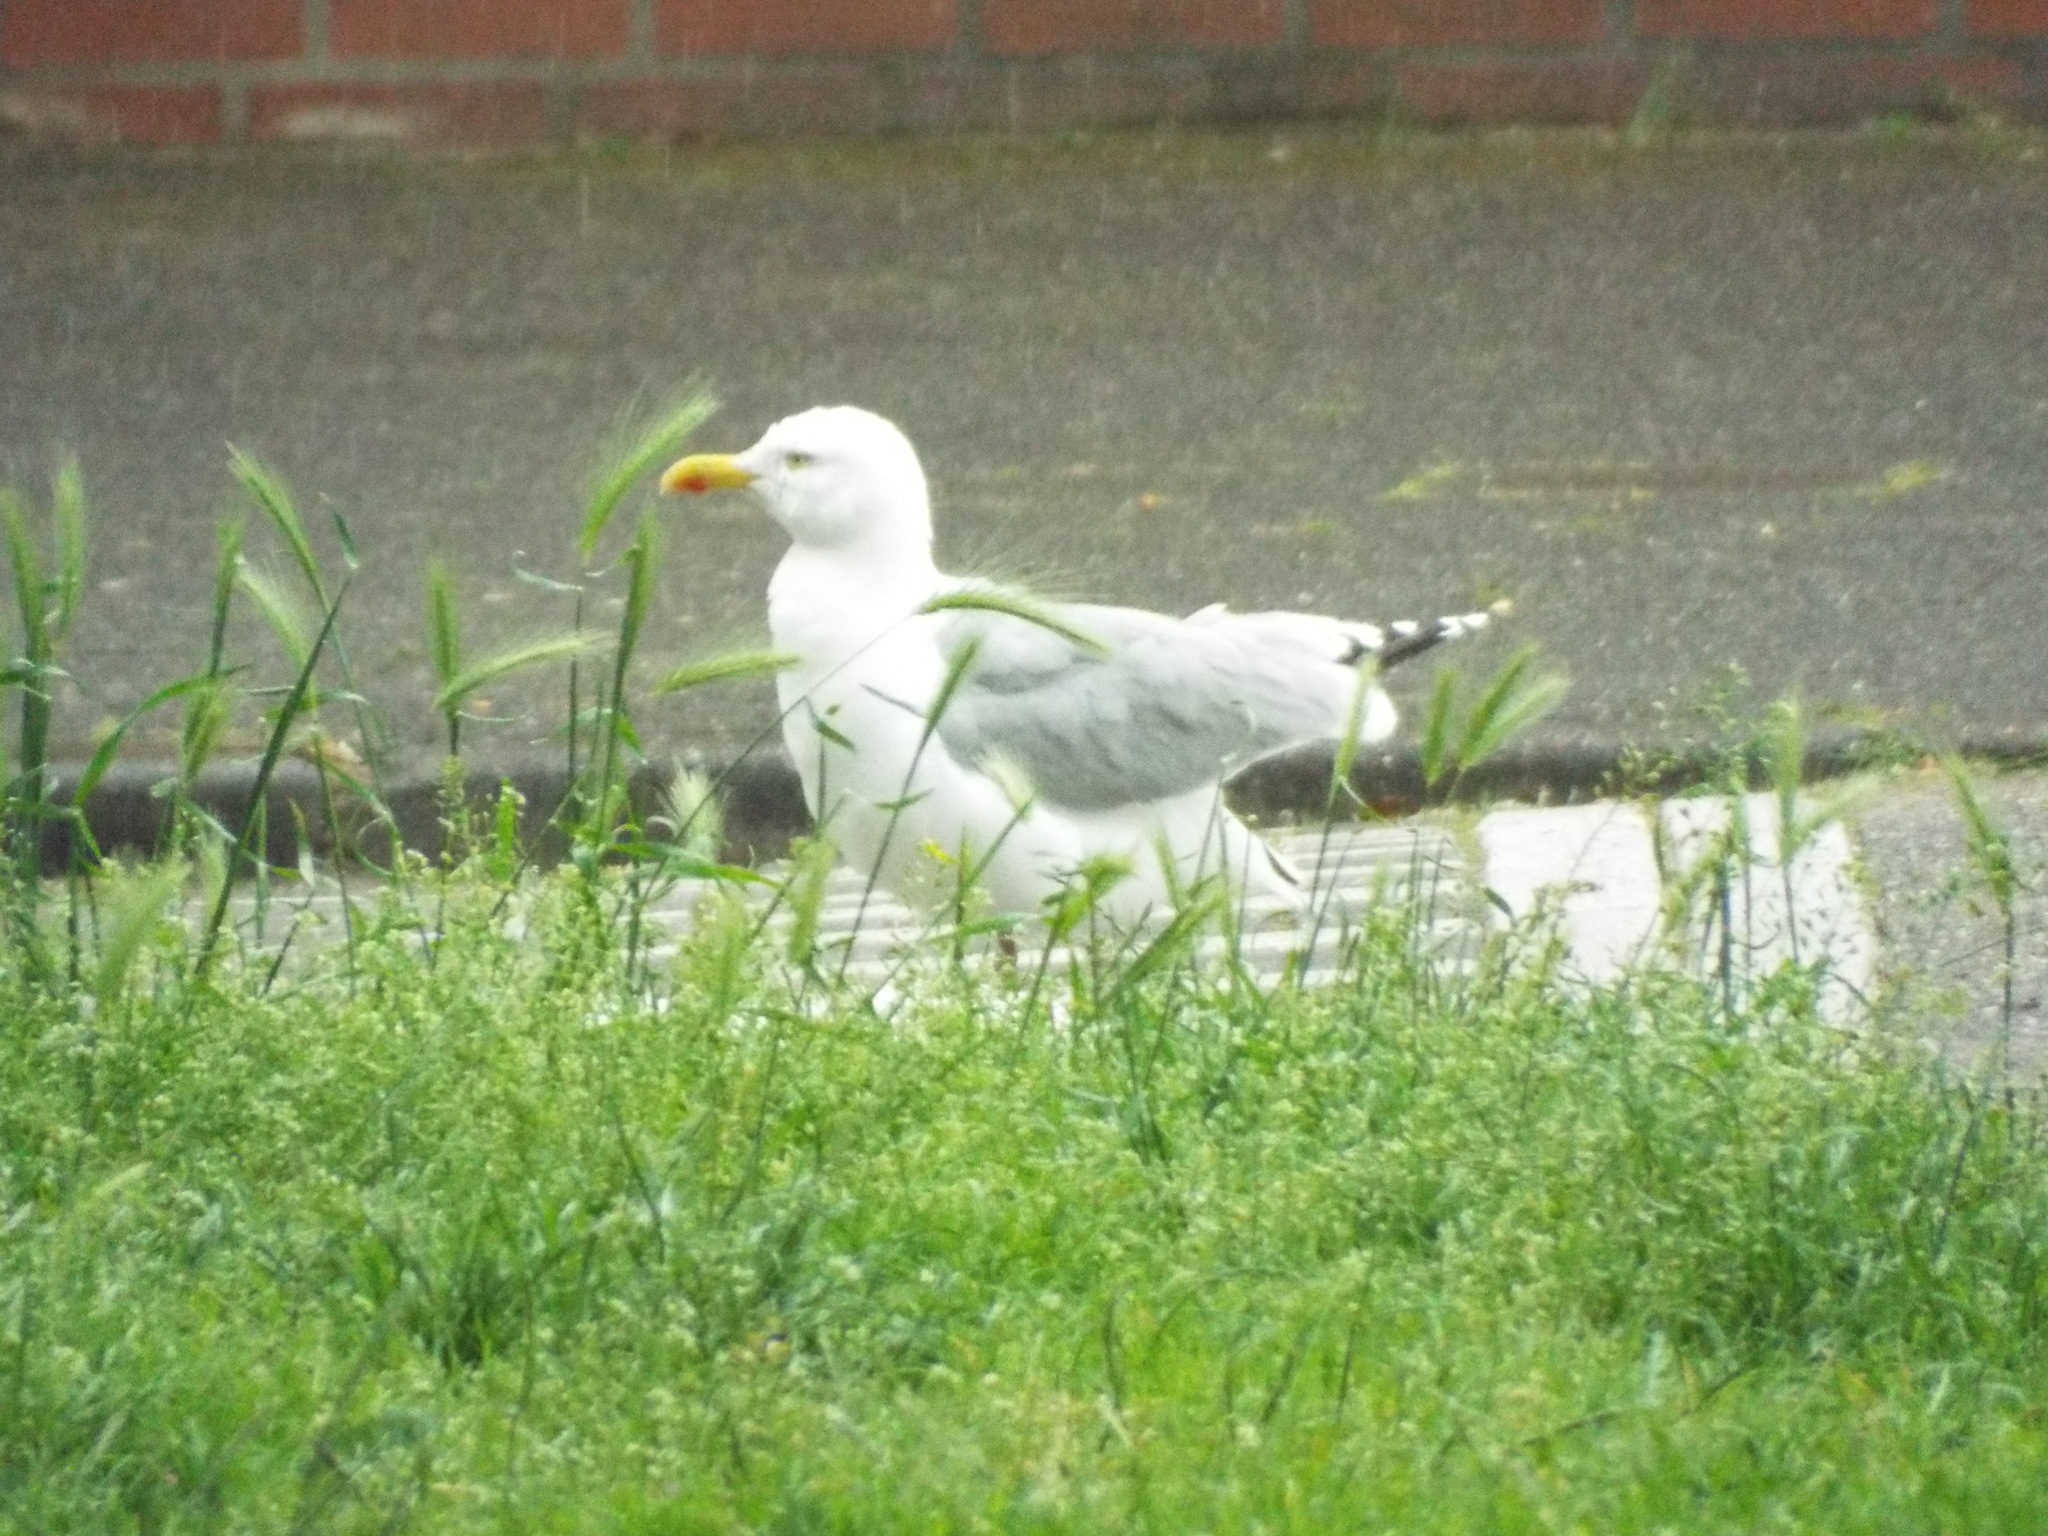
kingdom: Animalia
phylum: Chordata
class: Aves
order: Charadriiformes
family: Laridae
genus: Larus
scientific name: Larus argentatus
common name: Herring gull
